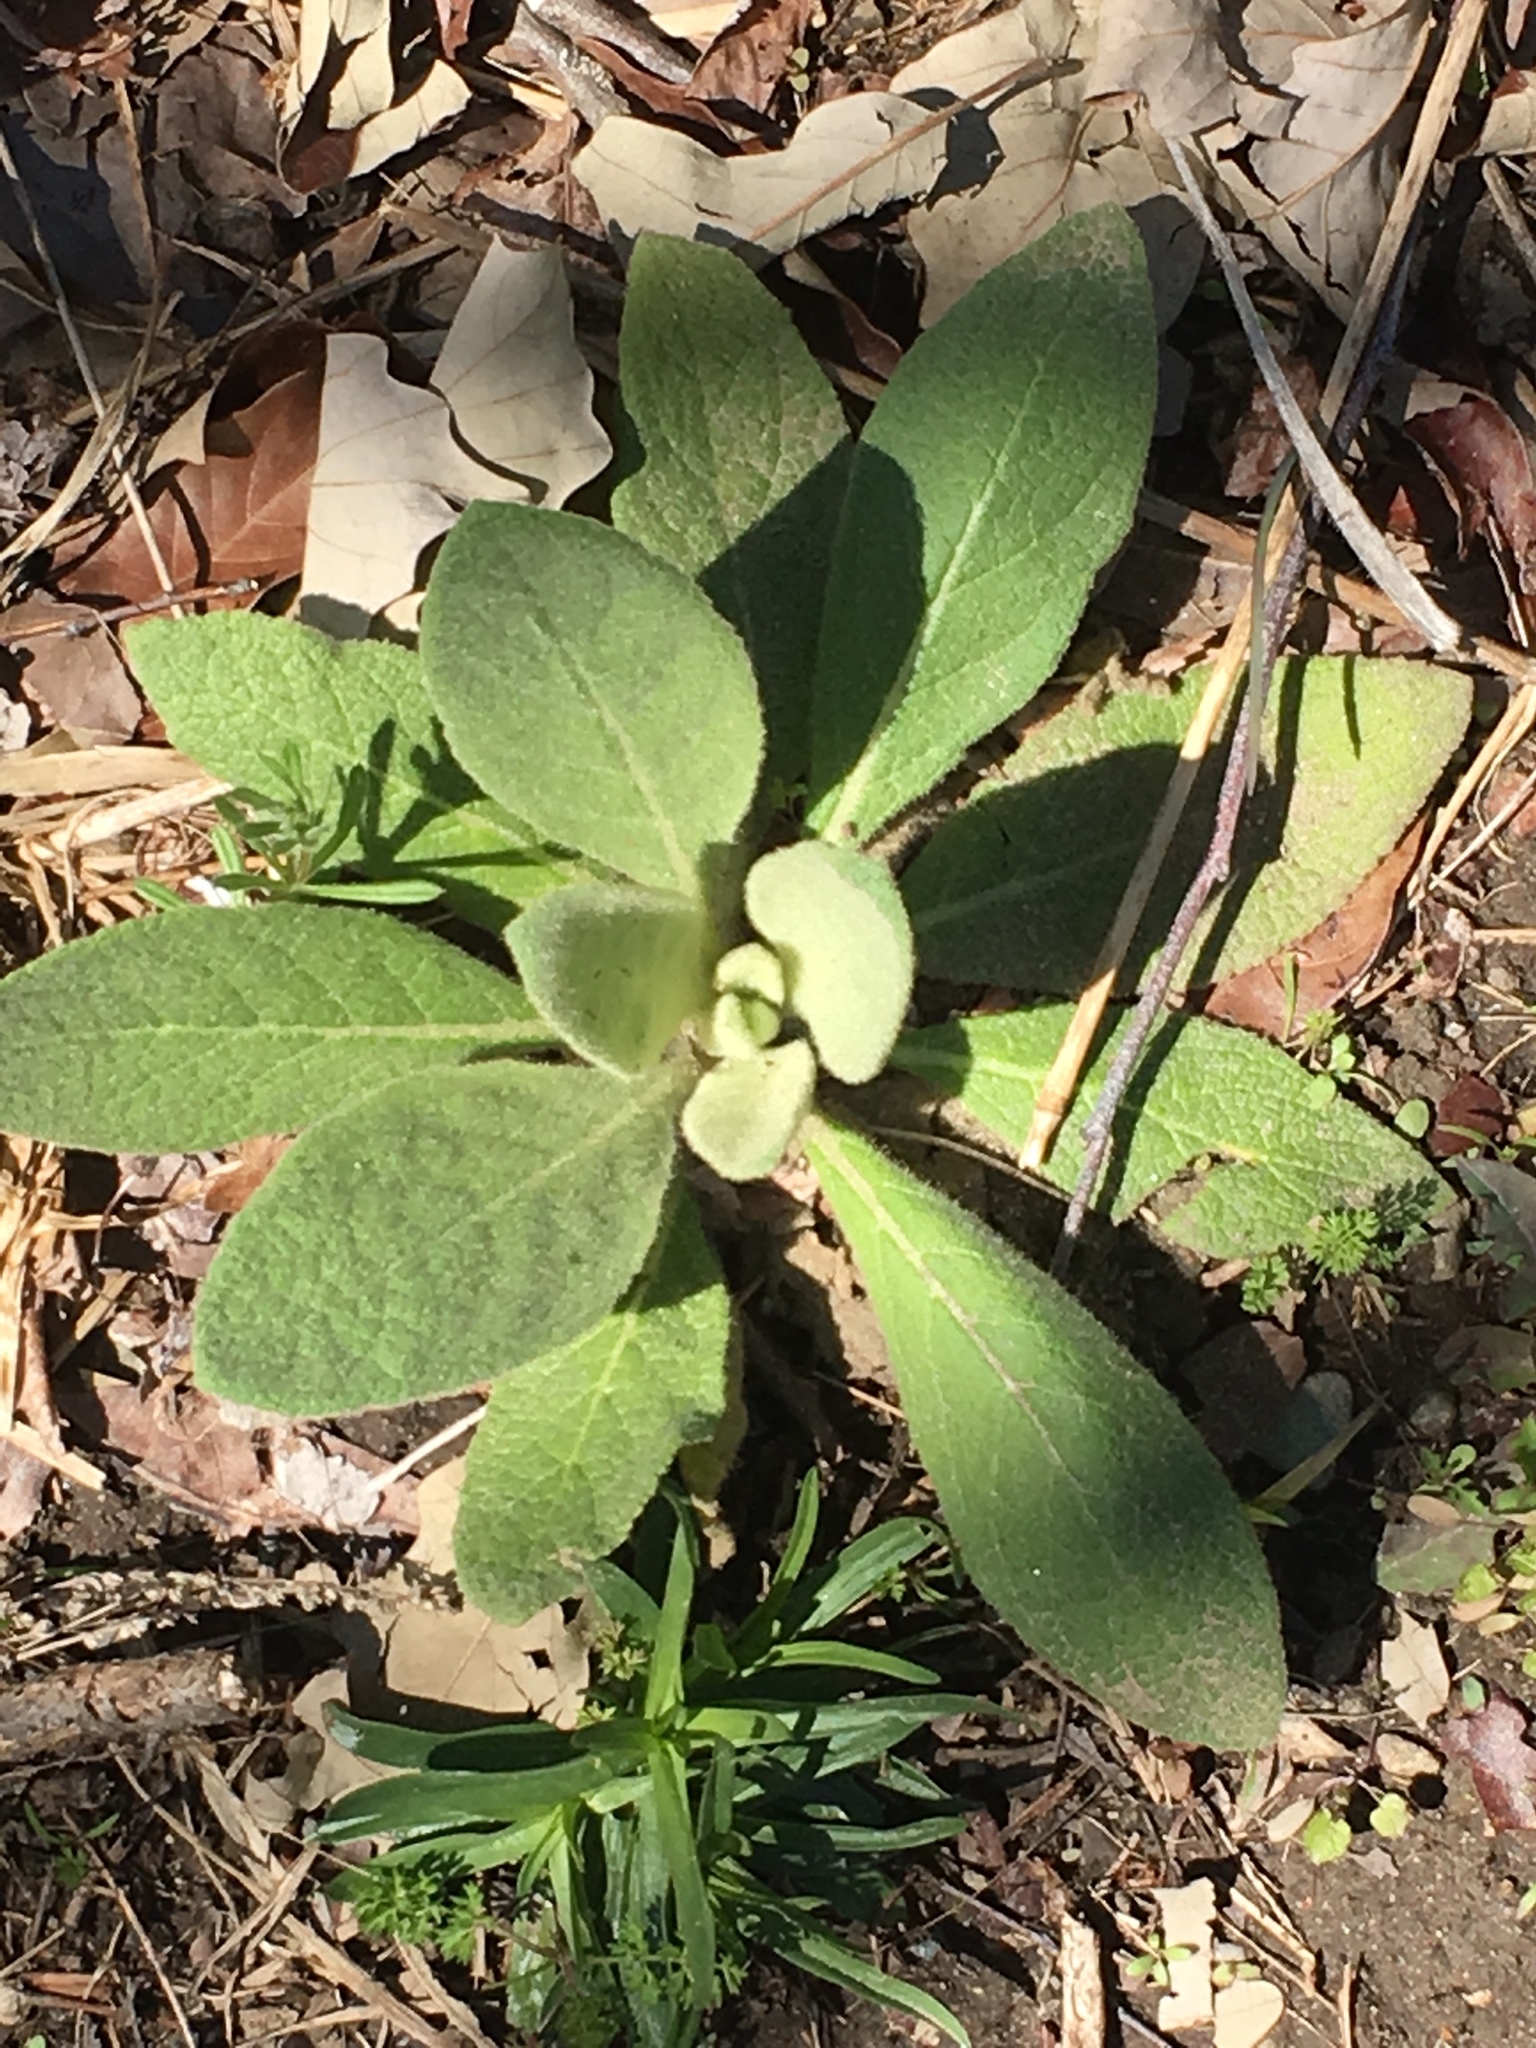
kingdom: Plantae
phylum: Tracheophyta
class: Magnoliopsida
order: Lamiales
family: Scrophulariaceae
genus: Verbascum
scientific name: Verbascum thapsus
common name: Common mullein
